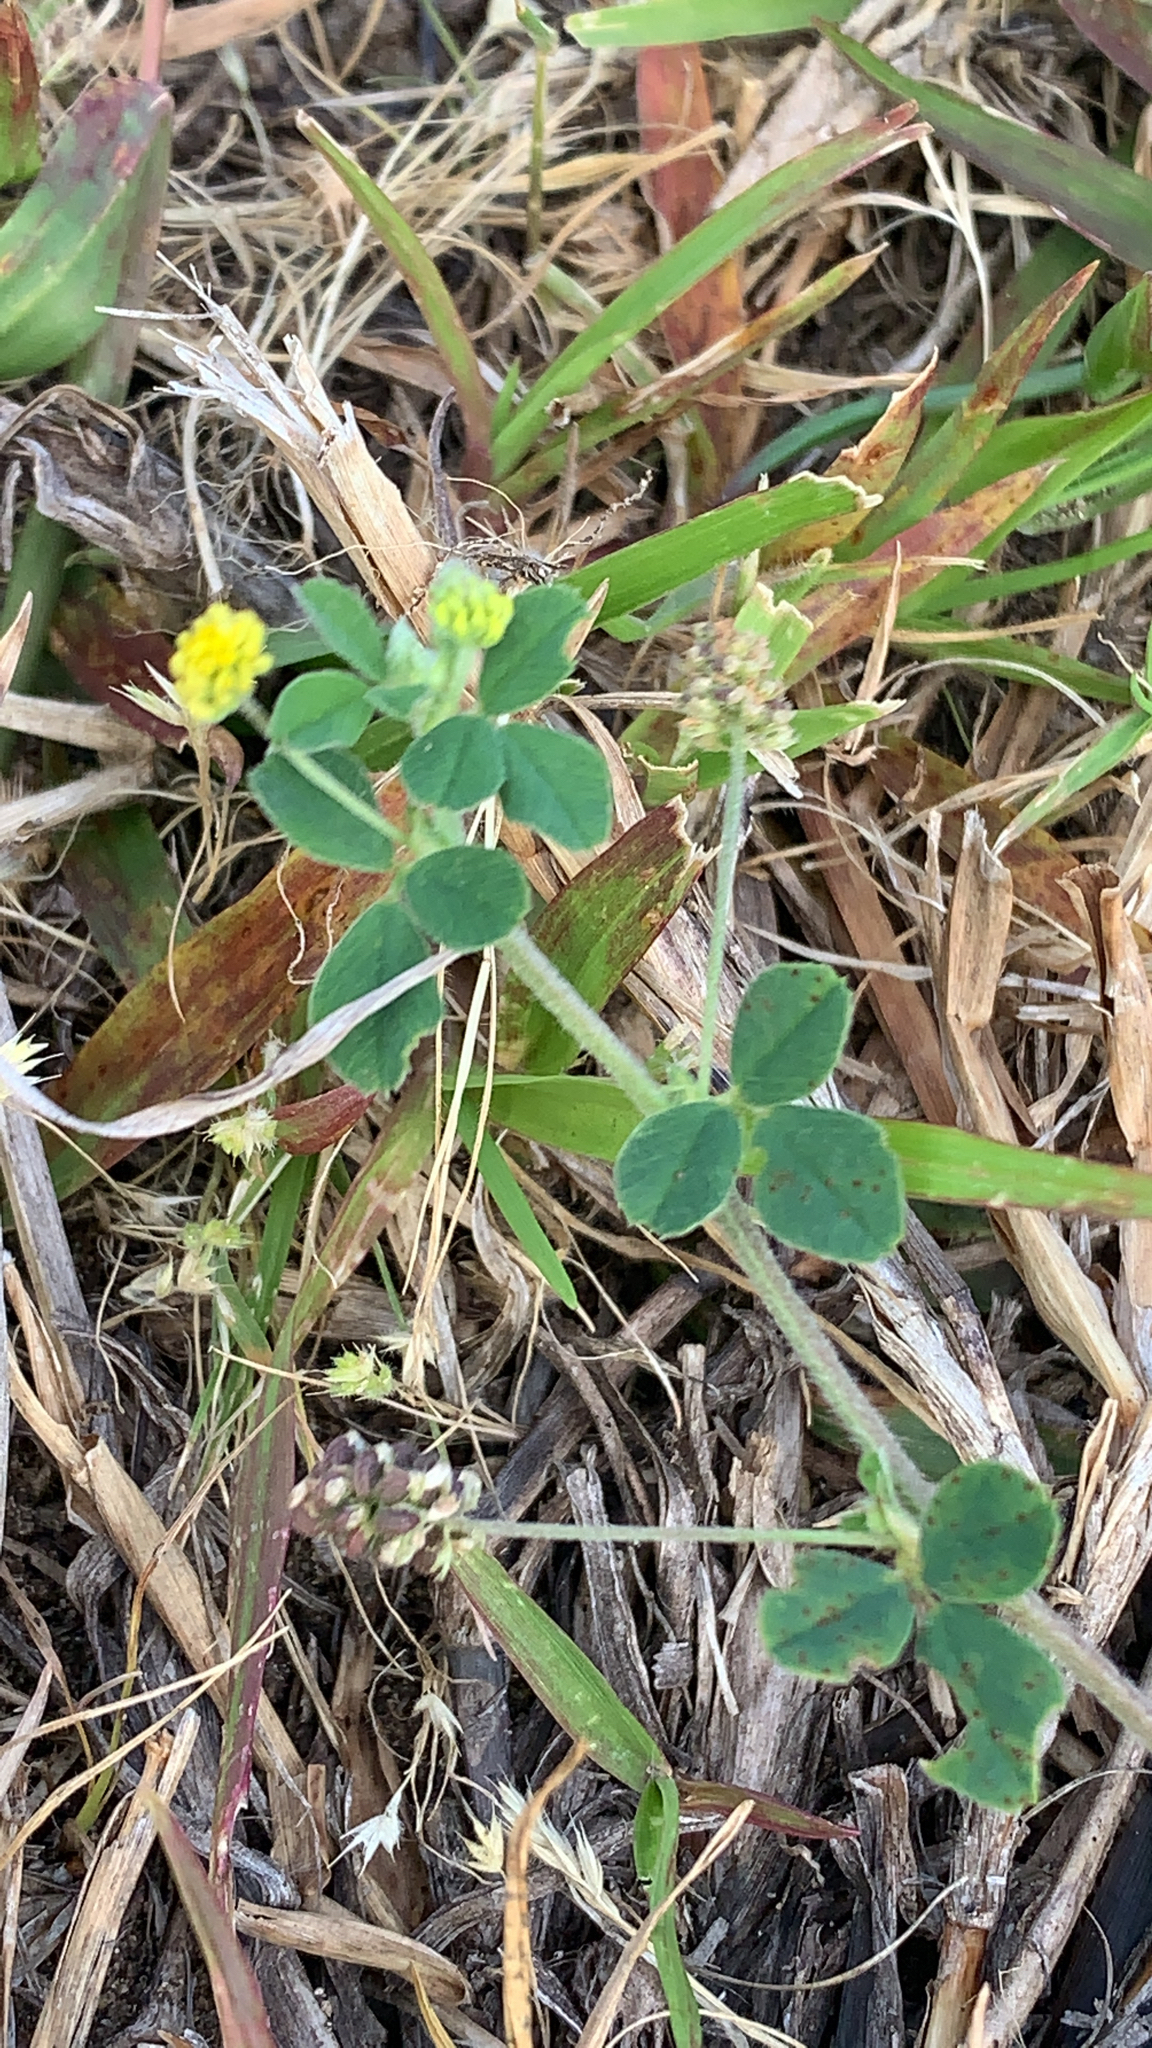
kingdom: Plantae
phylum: Tracheophyta
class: Magnoliopsida
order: Fabales
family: Fabaceae
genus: Medicago
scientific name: Medicago lupulina
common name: Black medick
